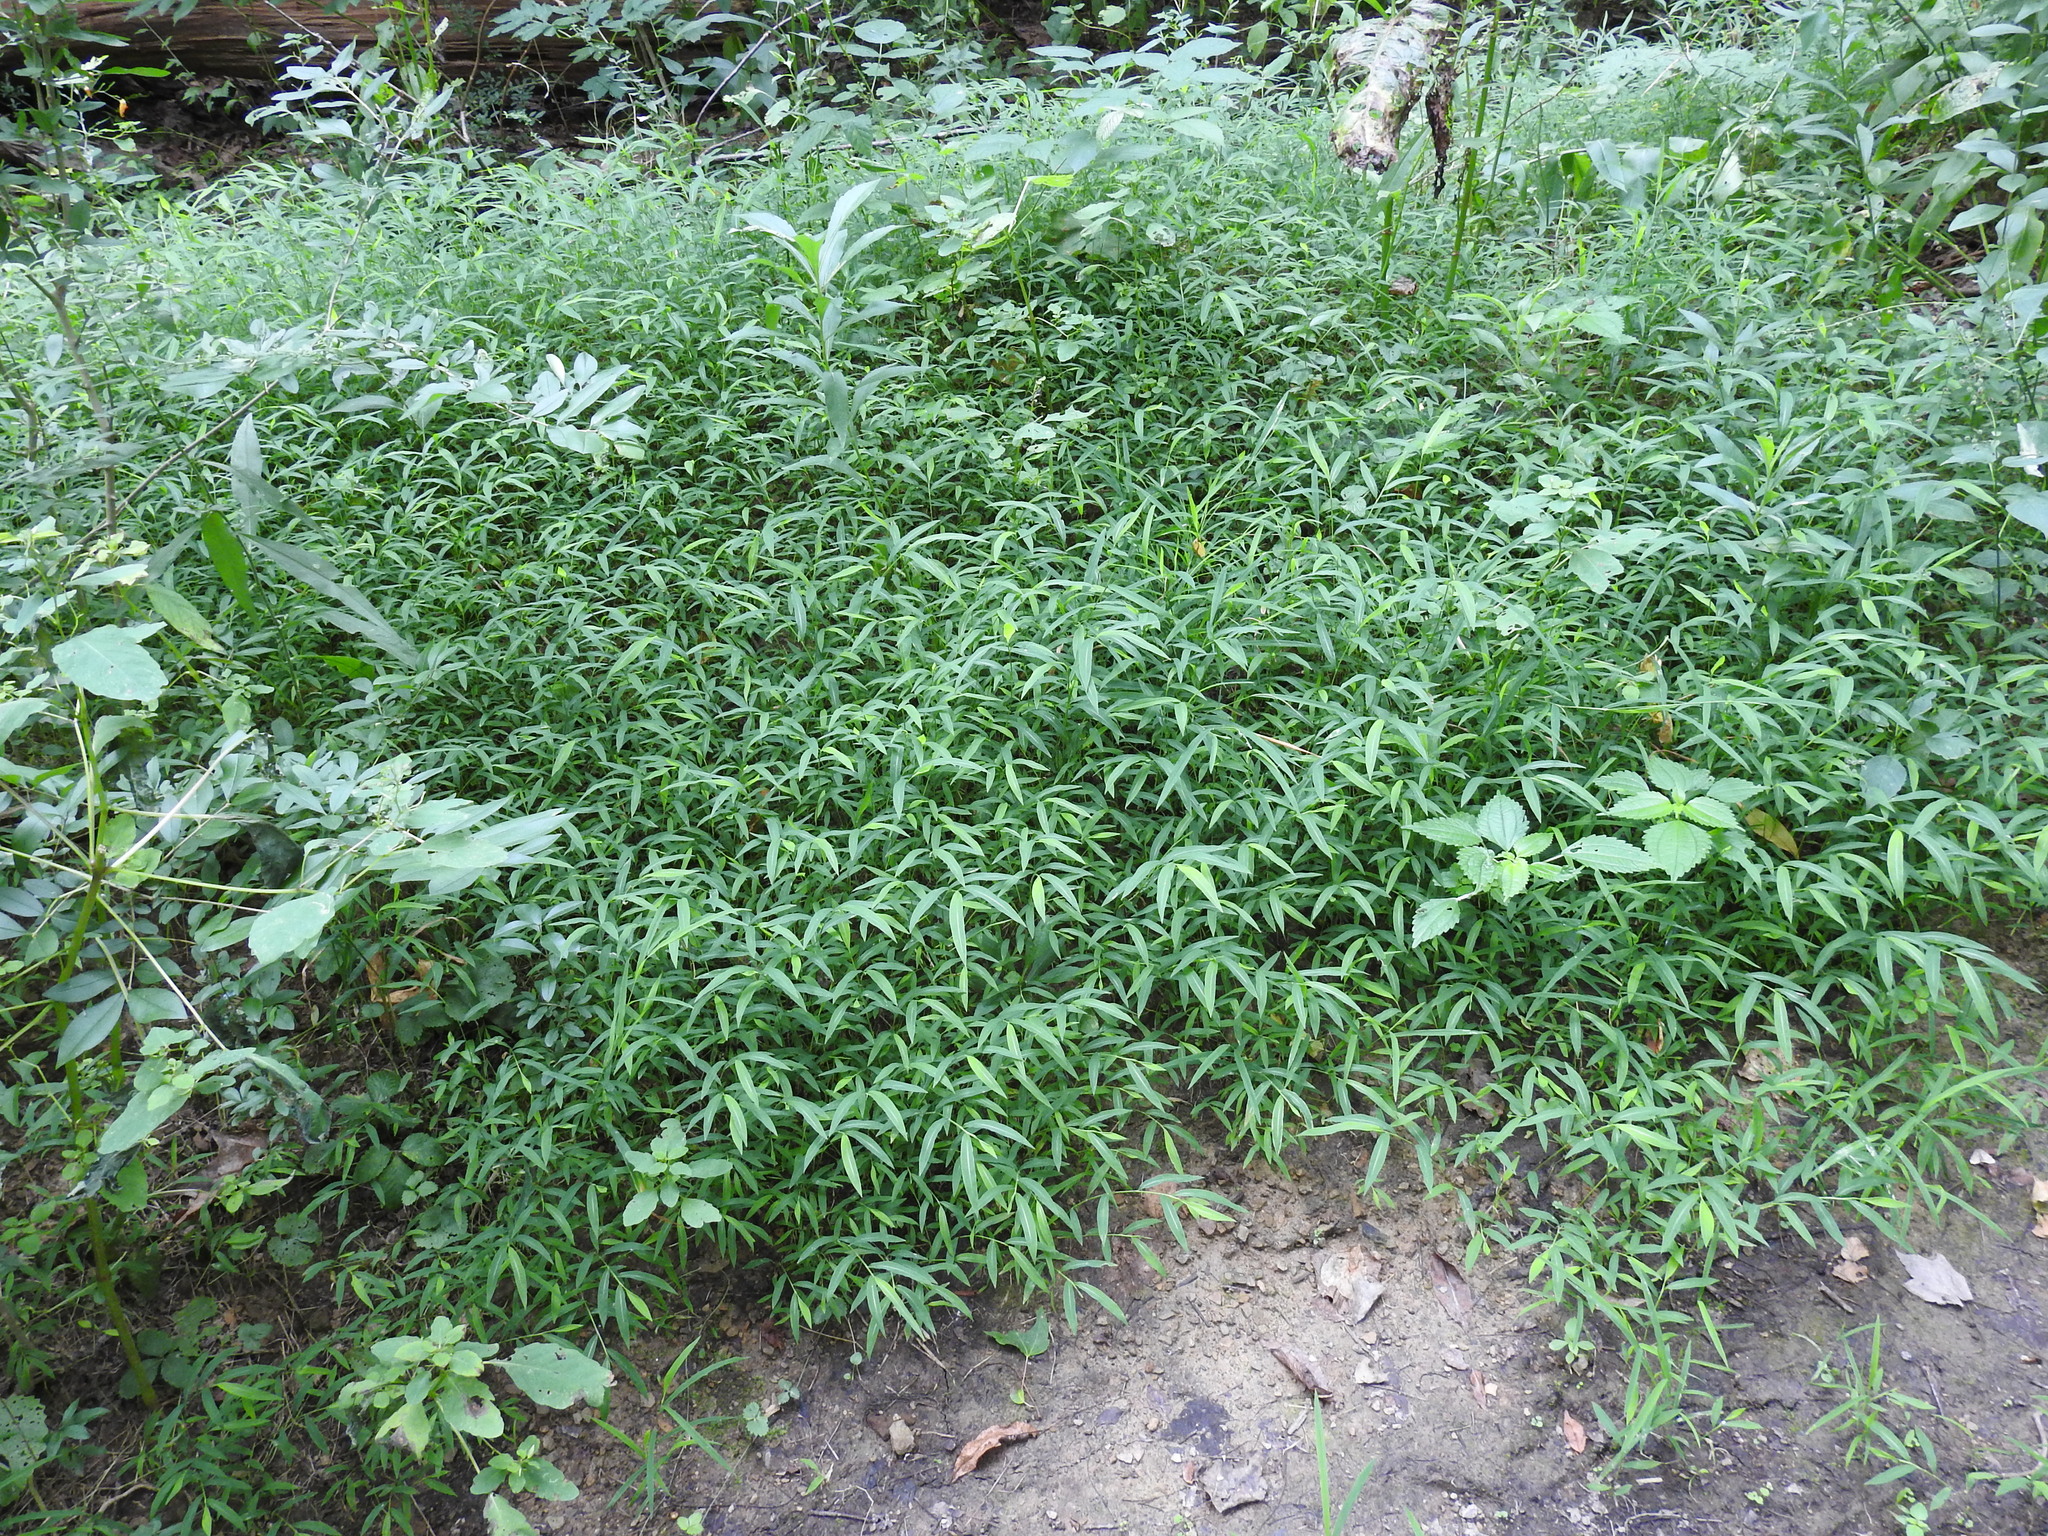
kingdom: Plantae
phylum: Tracheophyta
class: Liliopsida
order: Poales
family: Poaceae
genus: Microstegium
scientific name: Microstegium vimineum
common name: Japanese stiltgrass
